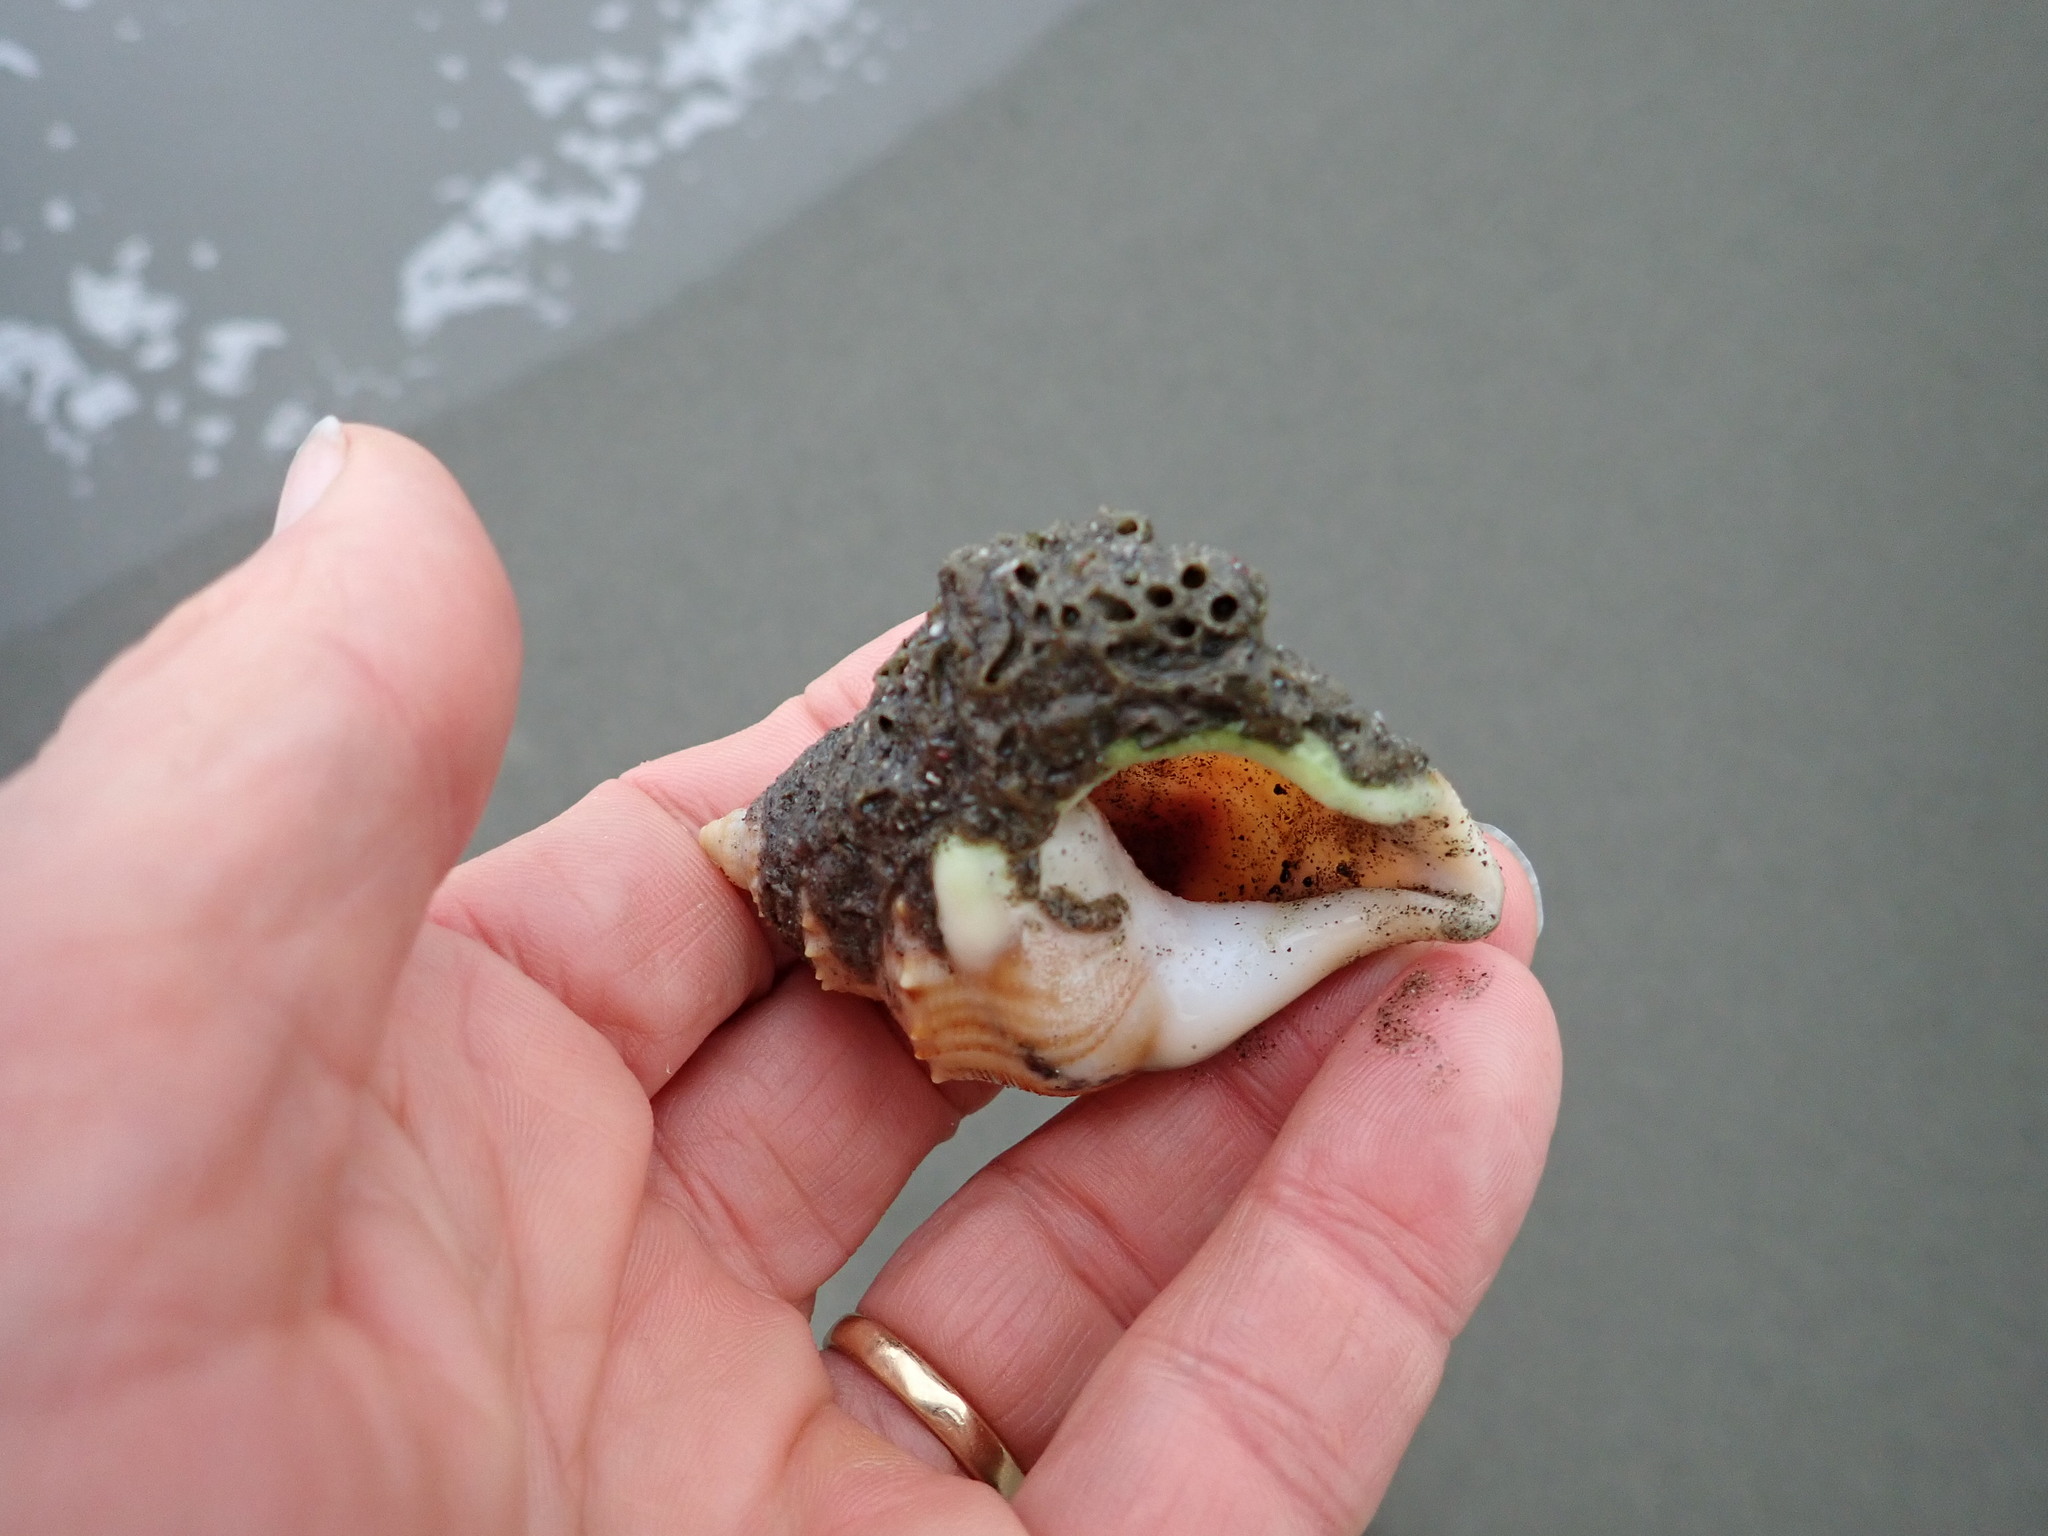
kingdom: Animalia
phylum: Annelida
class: Polychaeta
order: Sabellida
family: Sabellariidae
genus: Neosabellaria
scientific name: Neosabellaria kaiparaensis
